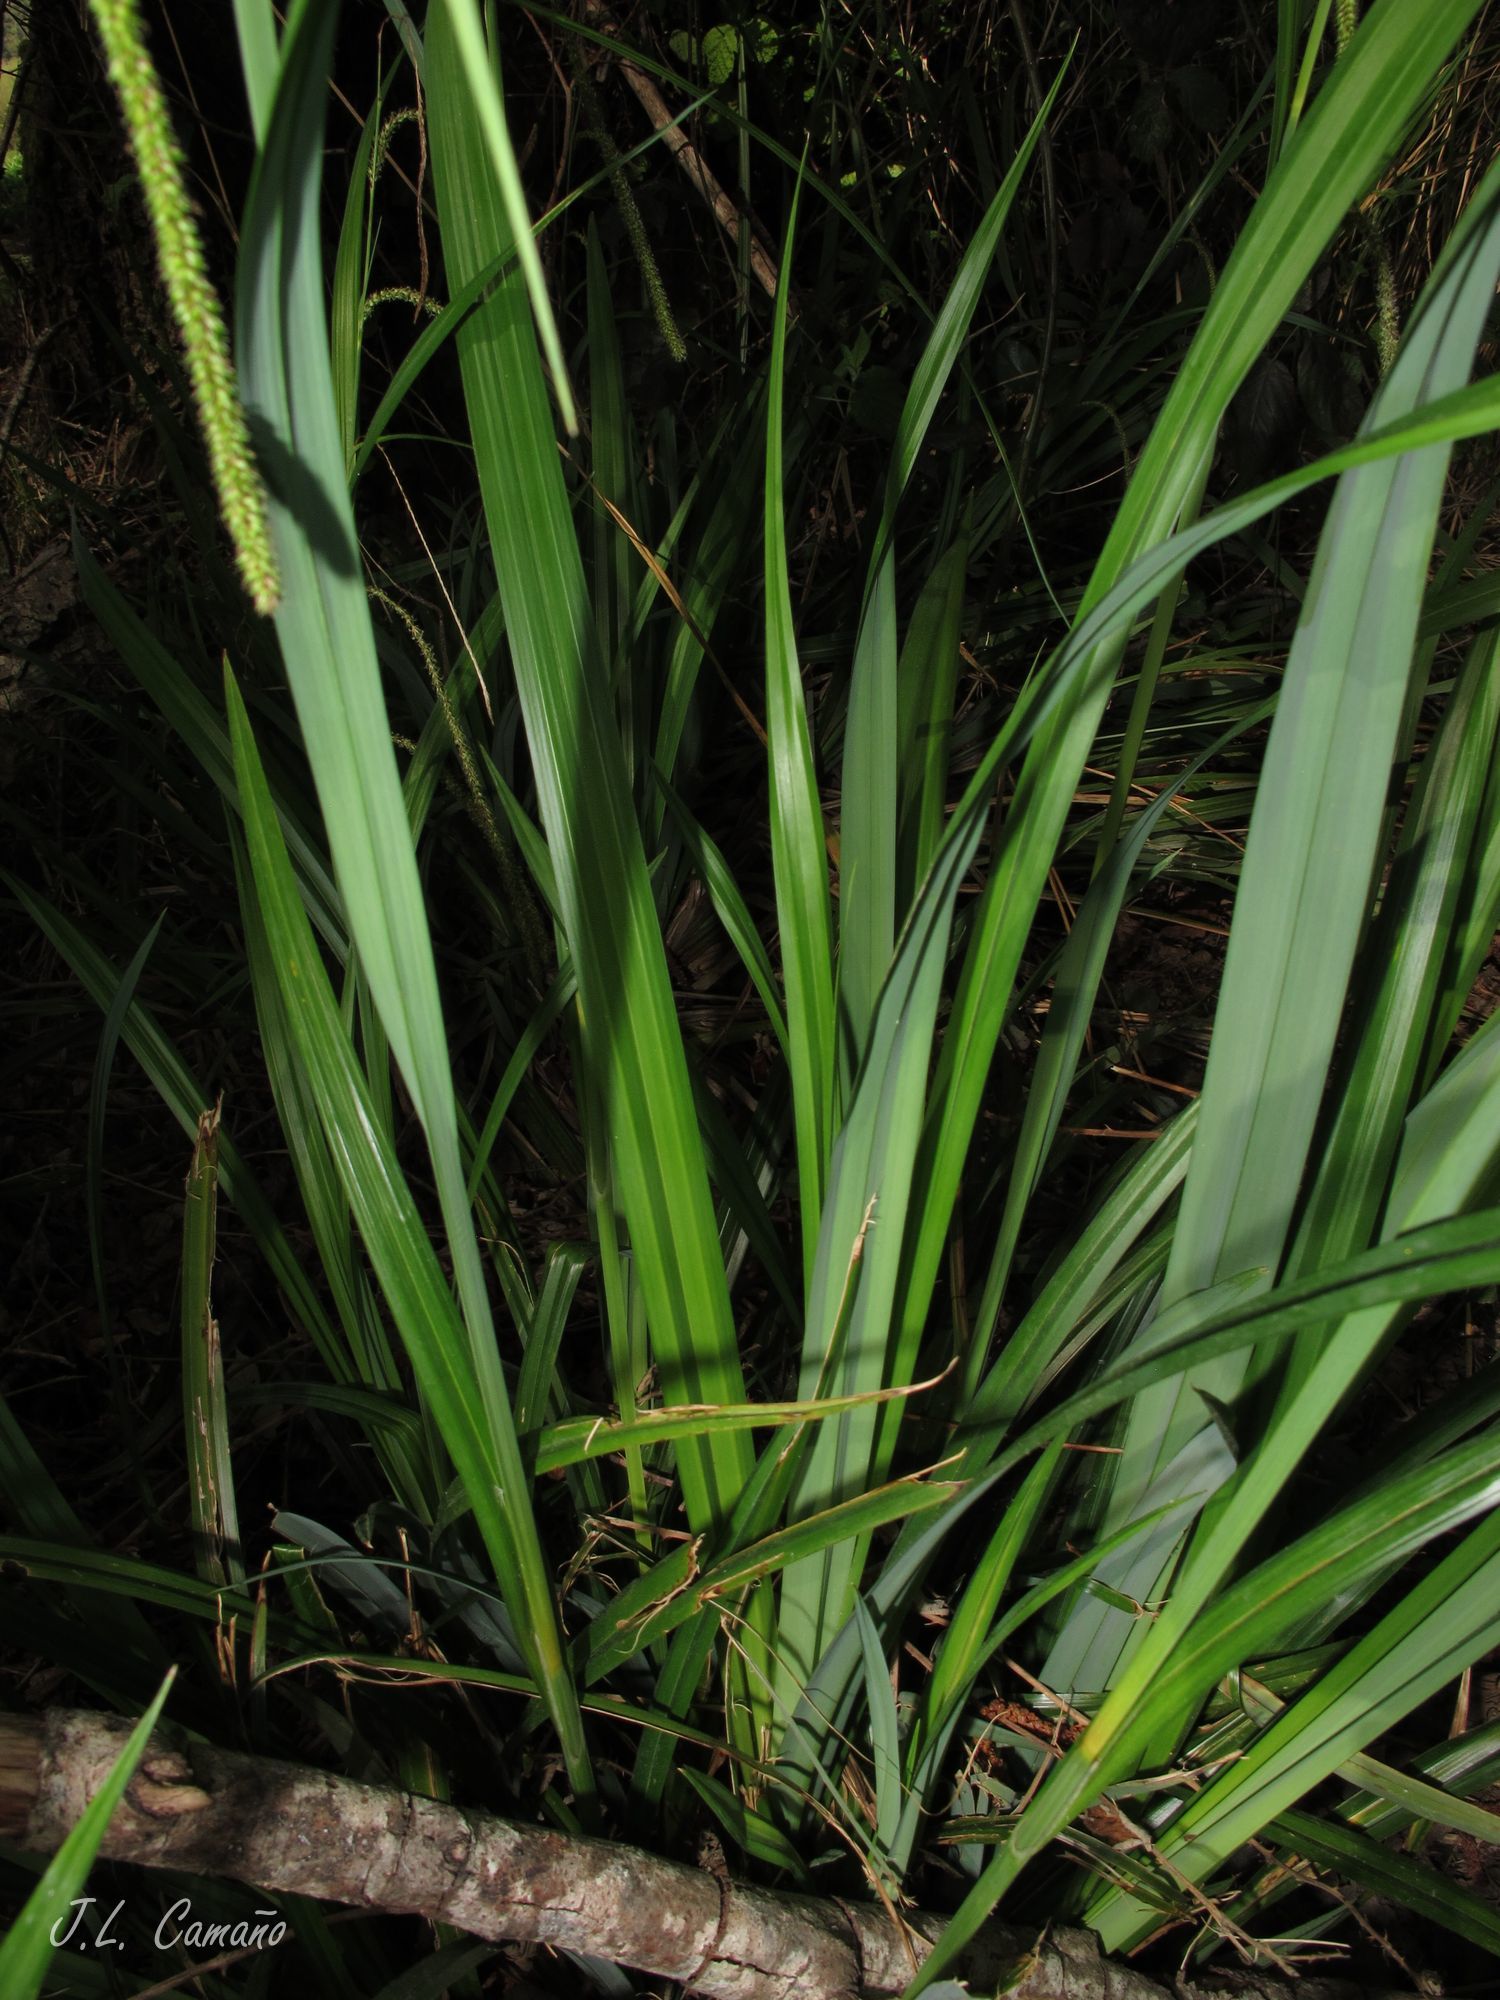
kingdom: Plantae
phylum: Tracheophyta
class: Liliopsida
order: Poales
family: Cyperaceae
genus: Carex
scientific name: Carex pendula
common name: Pendulous sedge
